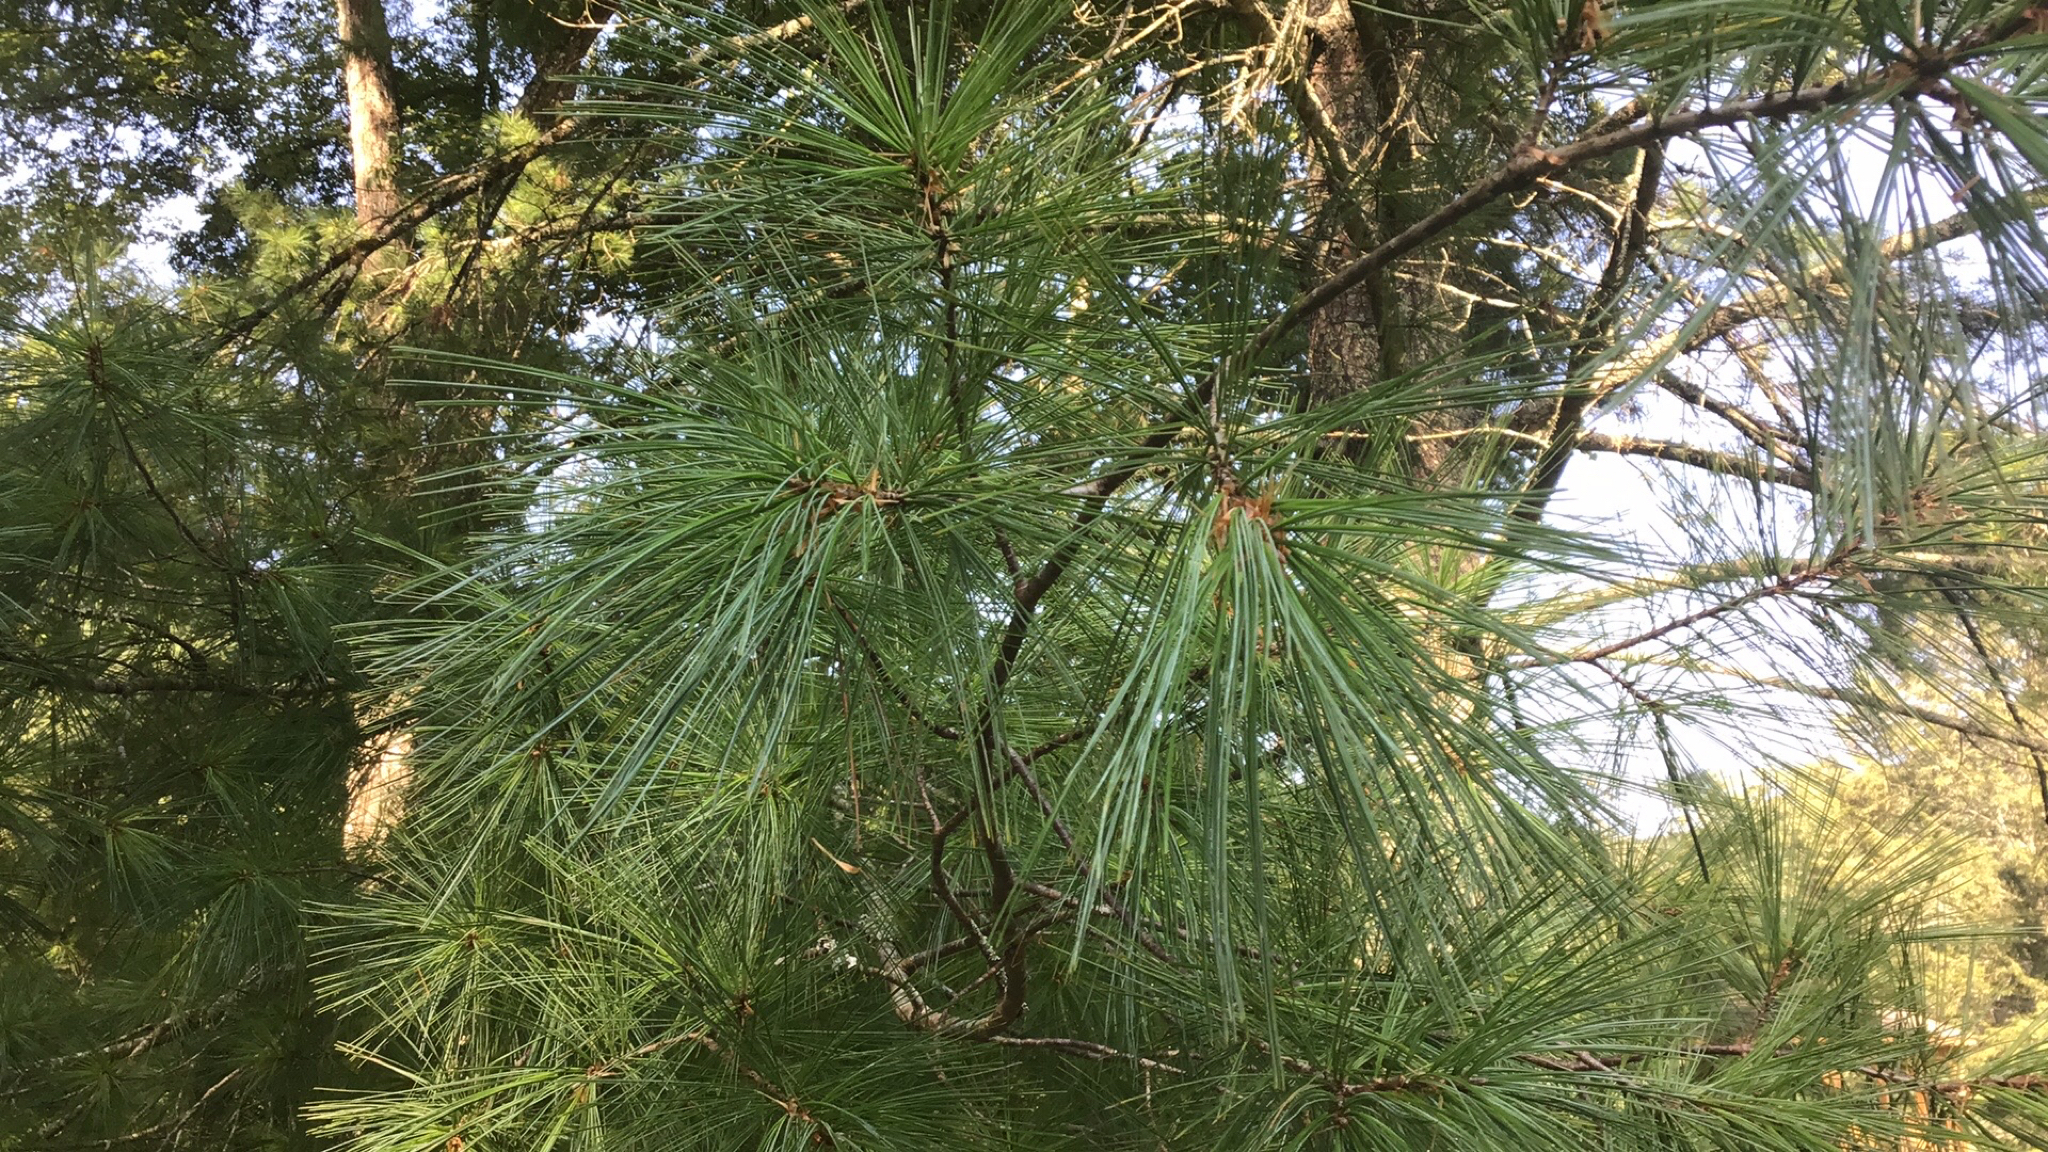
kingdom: Plantae
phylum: Tracheophyta
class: Pinopsida
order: Pinales
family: Pinaceae
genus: Pinus
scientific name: Pinus strobus
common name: Weymouth pine
